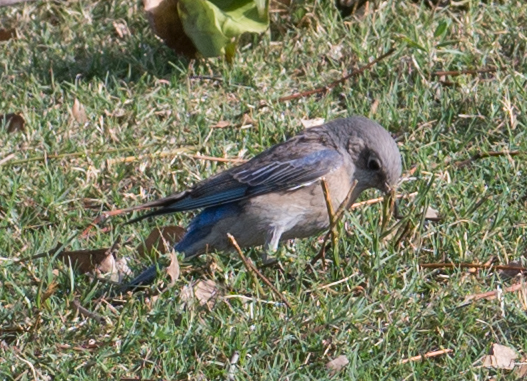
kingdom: Animalia
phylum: Chordata
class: Aves
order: Passeriformes
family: Turdidae
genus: Sialia
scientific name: Sialia mexicana
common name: Western bluebird
